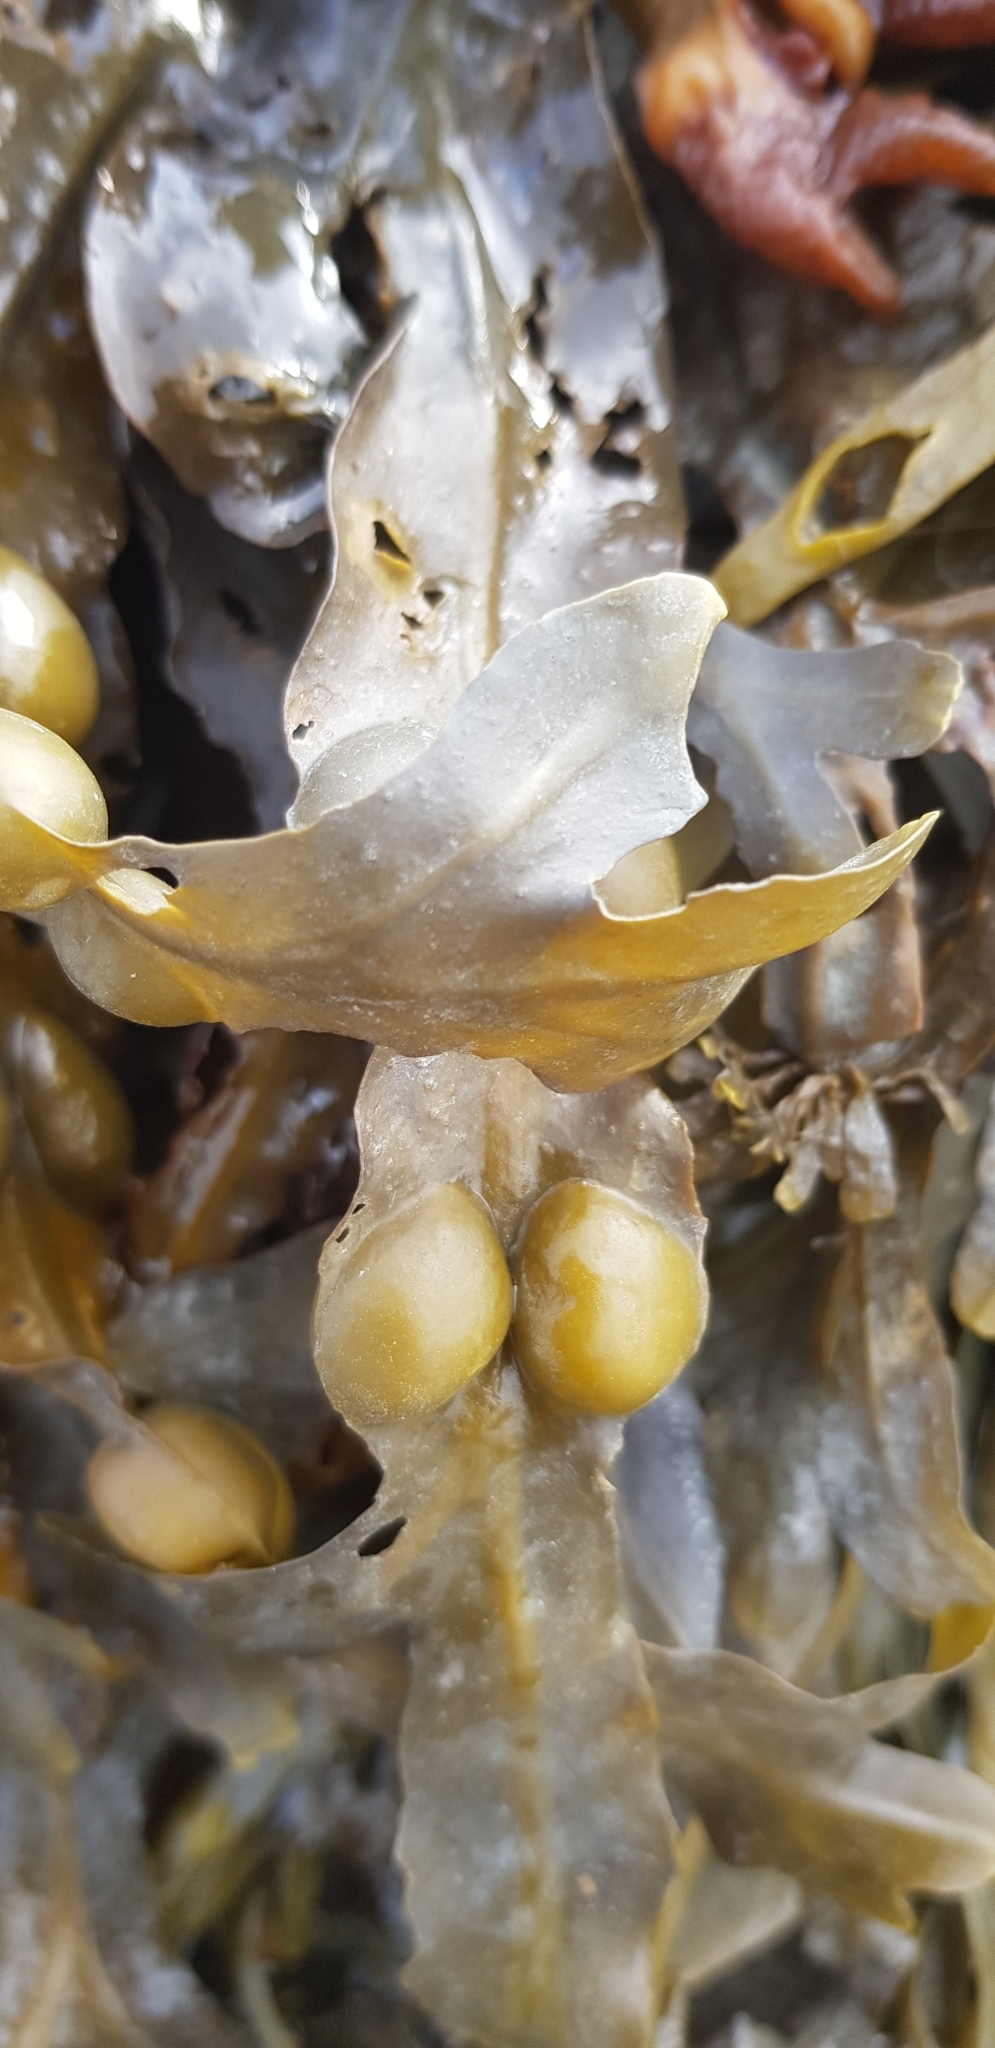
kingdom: Chromista
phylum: Ochrophyta
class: Phaeophyceae
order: Fucales
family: Fucaceae
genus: Fucus
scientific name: Fucus vesiculosus
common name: Bladder wrack
